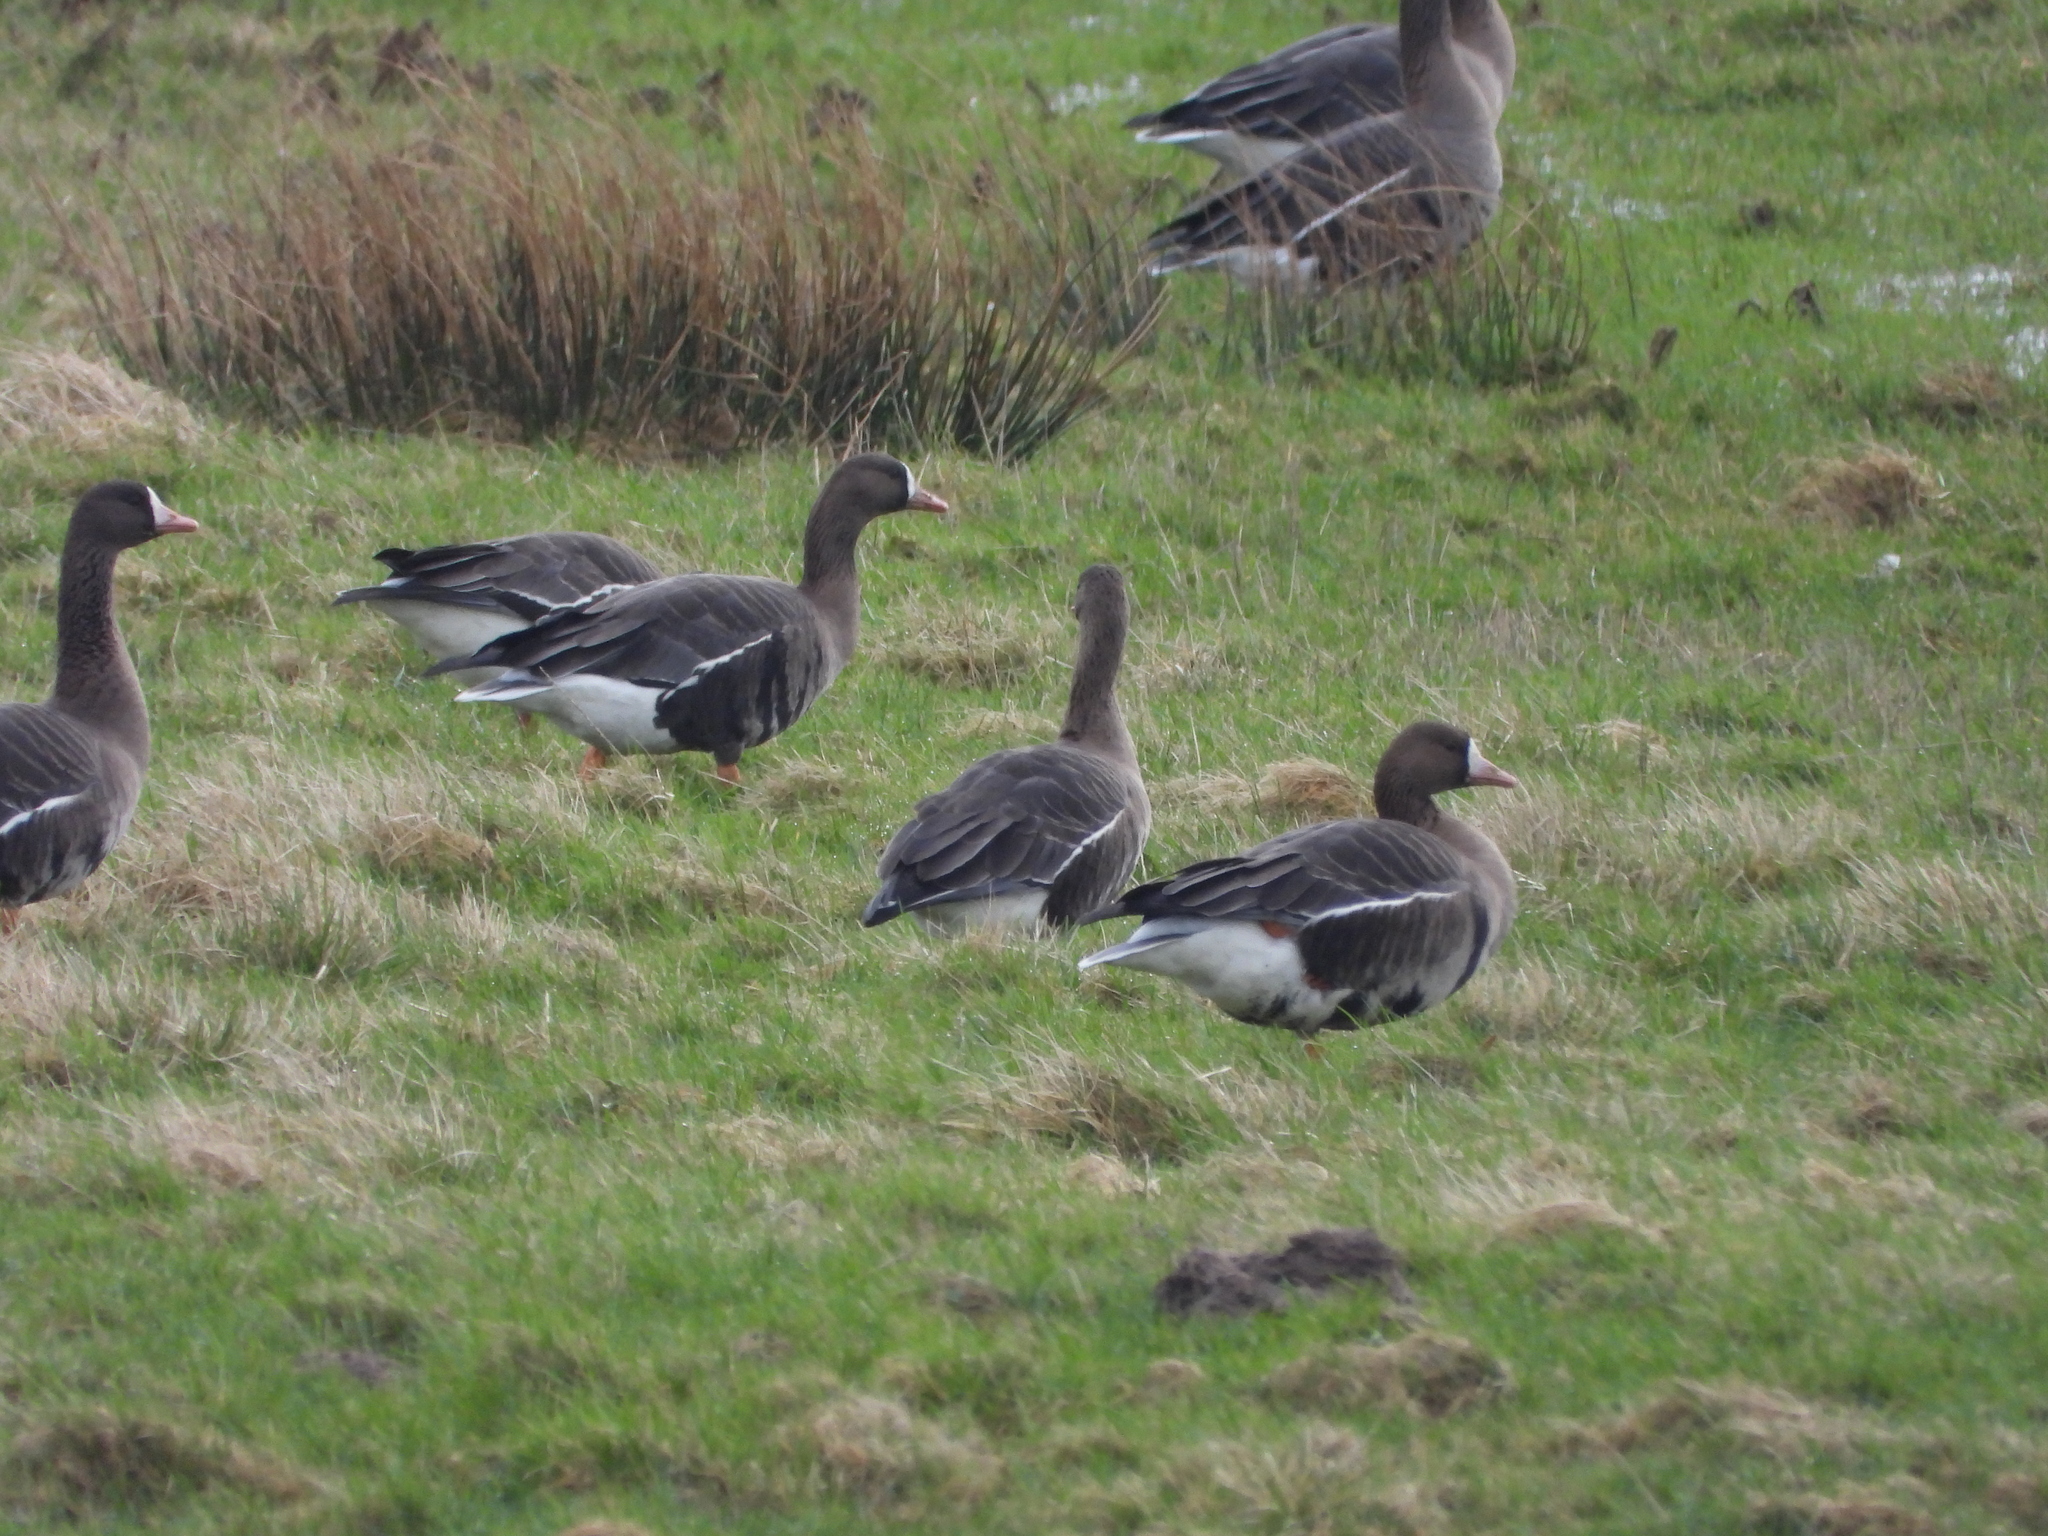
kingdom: Animalia
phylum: Chordata
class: Aves
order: Anseriformes
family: Anatidae
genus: Anser
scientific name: Anser albifrons
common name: Greater white-fronted goose
